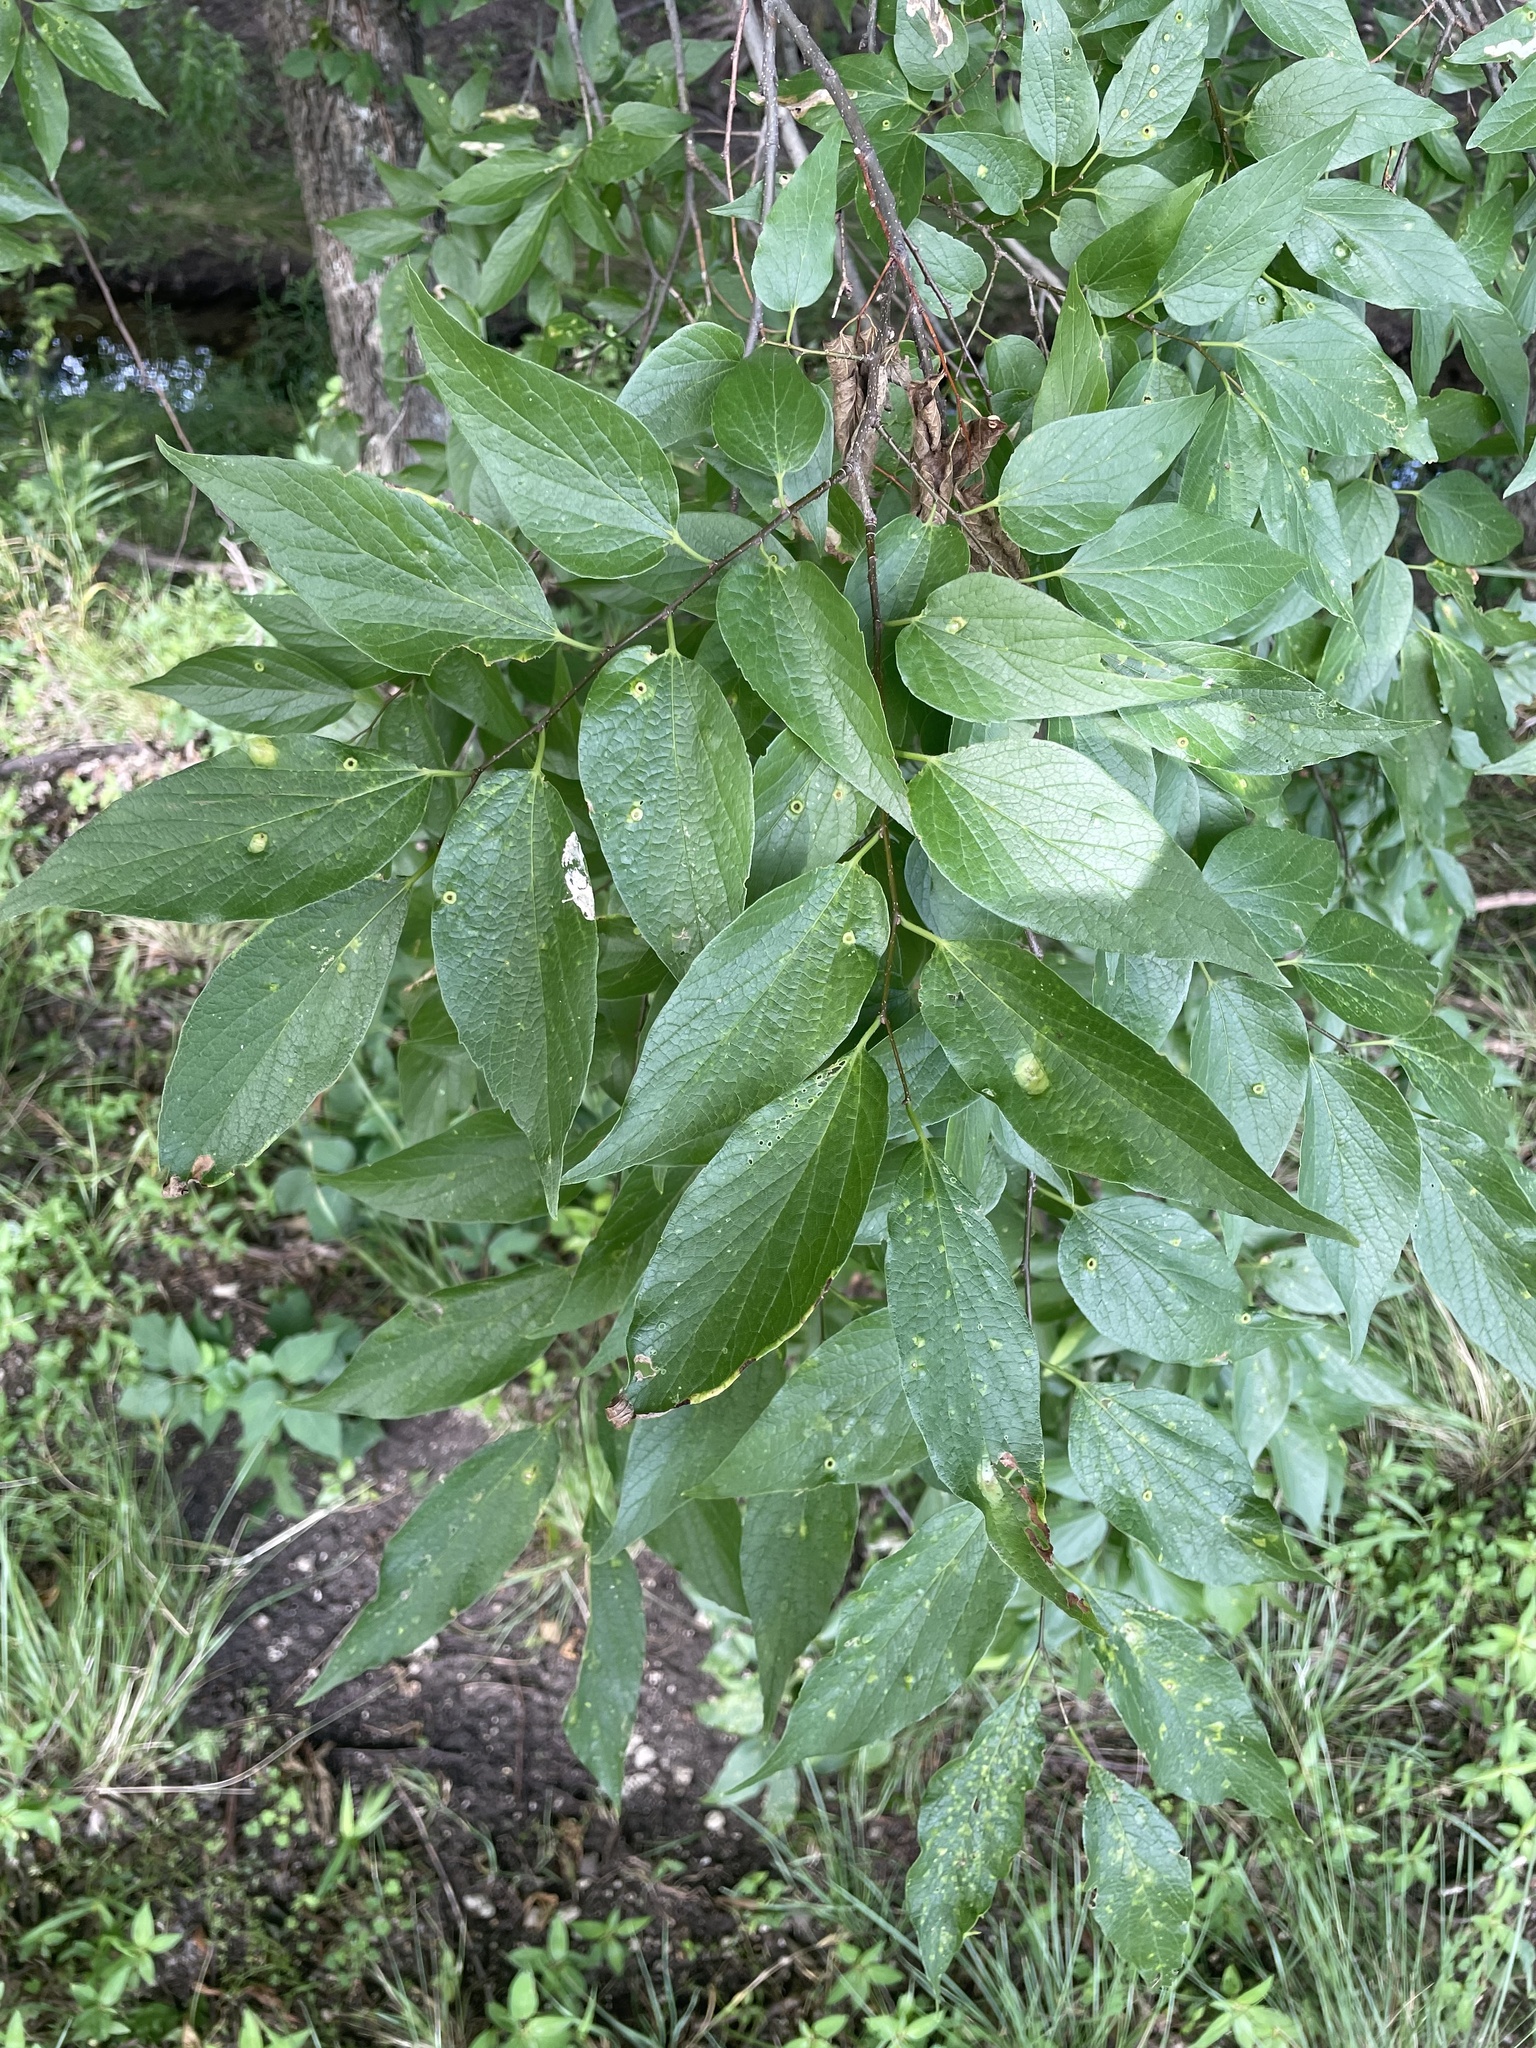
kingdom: Plantae
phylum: Tracheophyta
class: Magnoliopsida
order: Rosales
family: Cannabaceae
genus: Celtis
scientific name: Celtis laevigata
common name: Sugarberry
